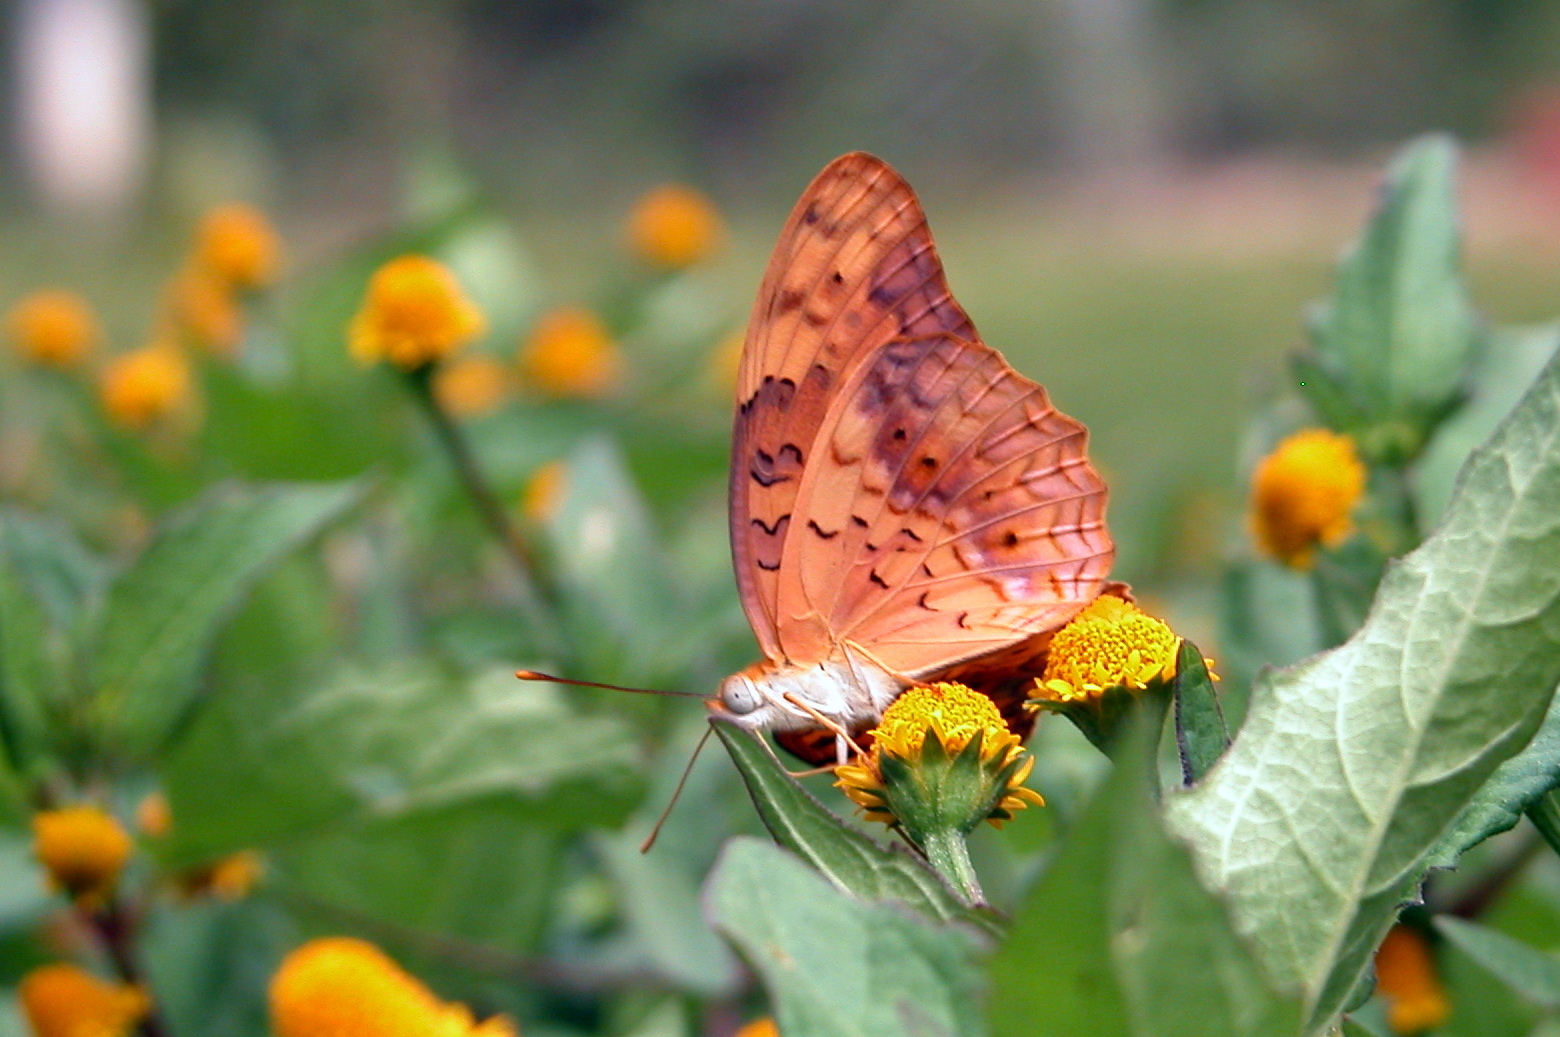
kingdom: Animalia
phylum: Arthropoda
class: Insecta
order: Lepidoptera
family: Nymphalidae
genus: Phalanta
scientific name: Phalanta phalantha
